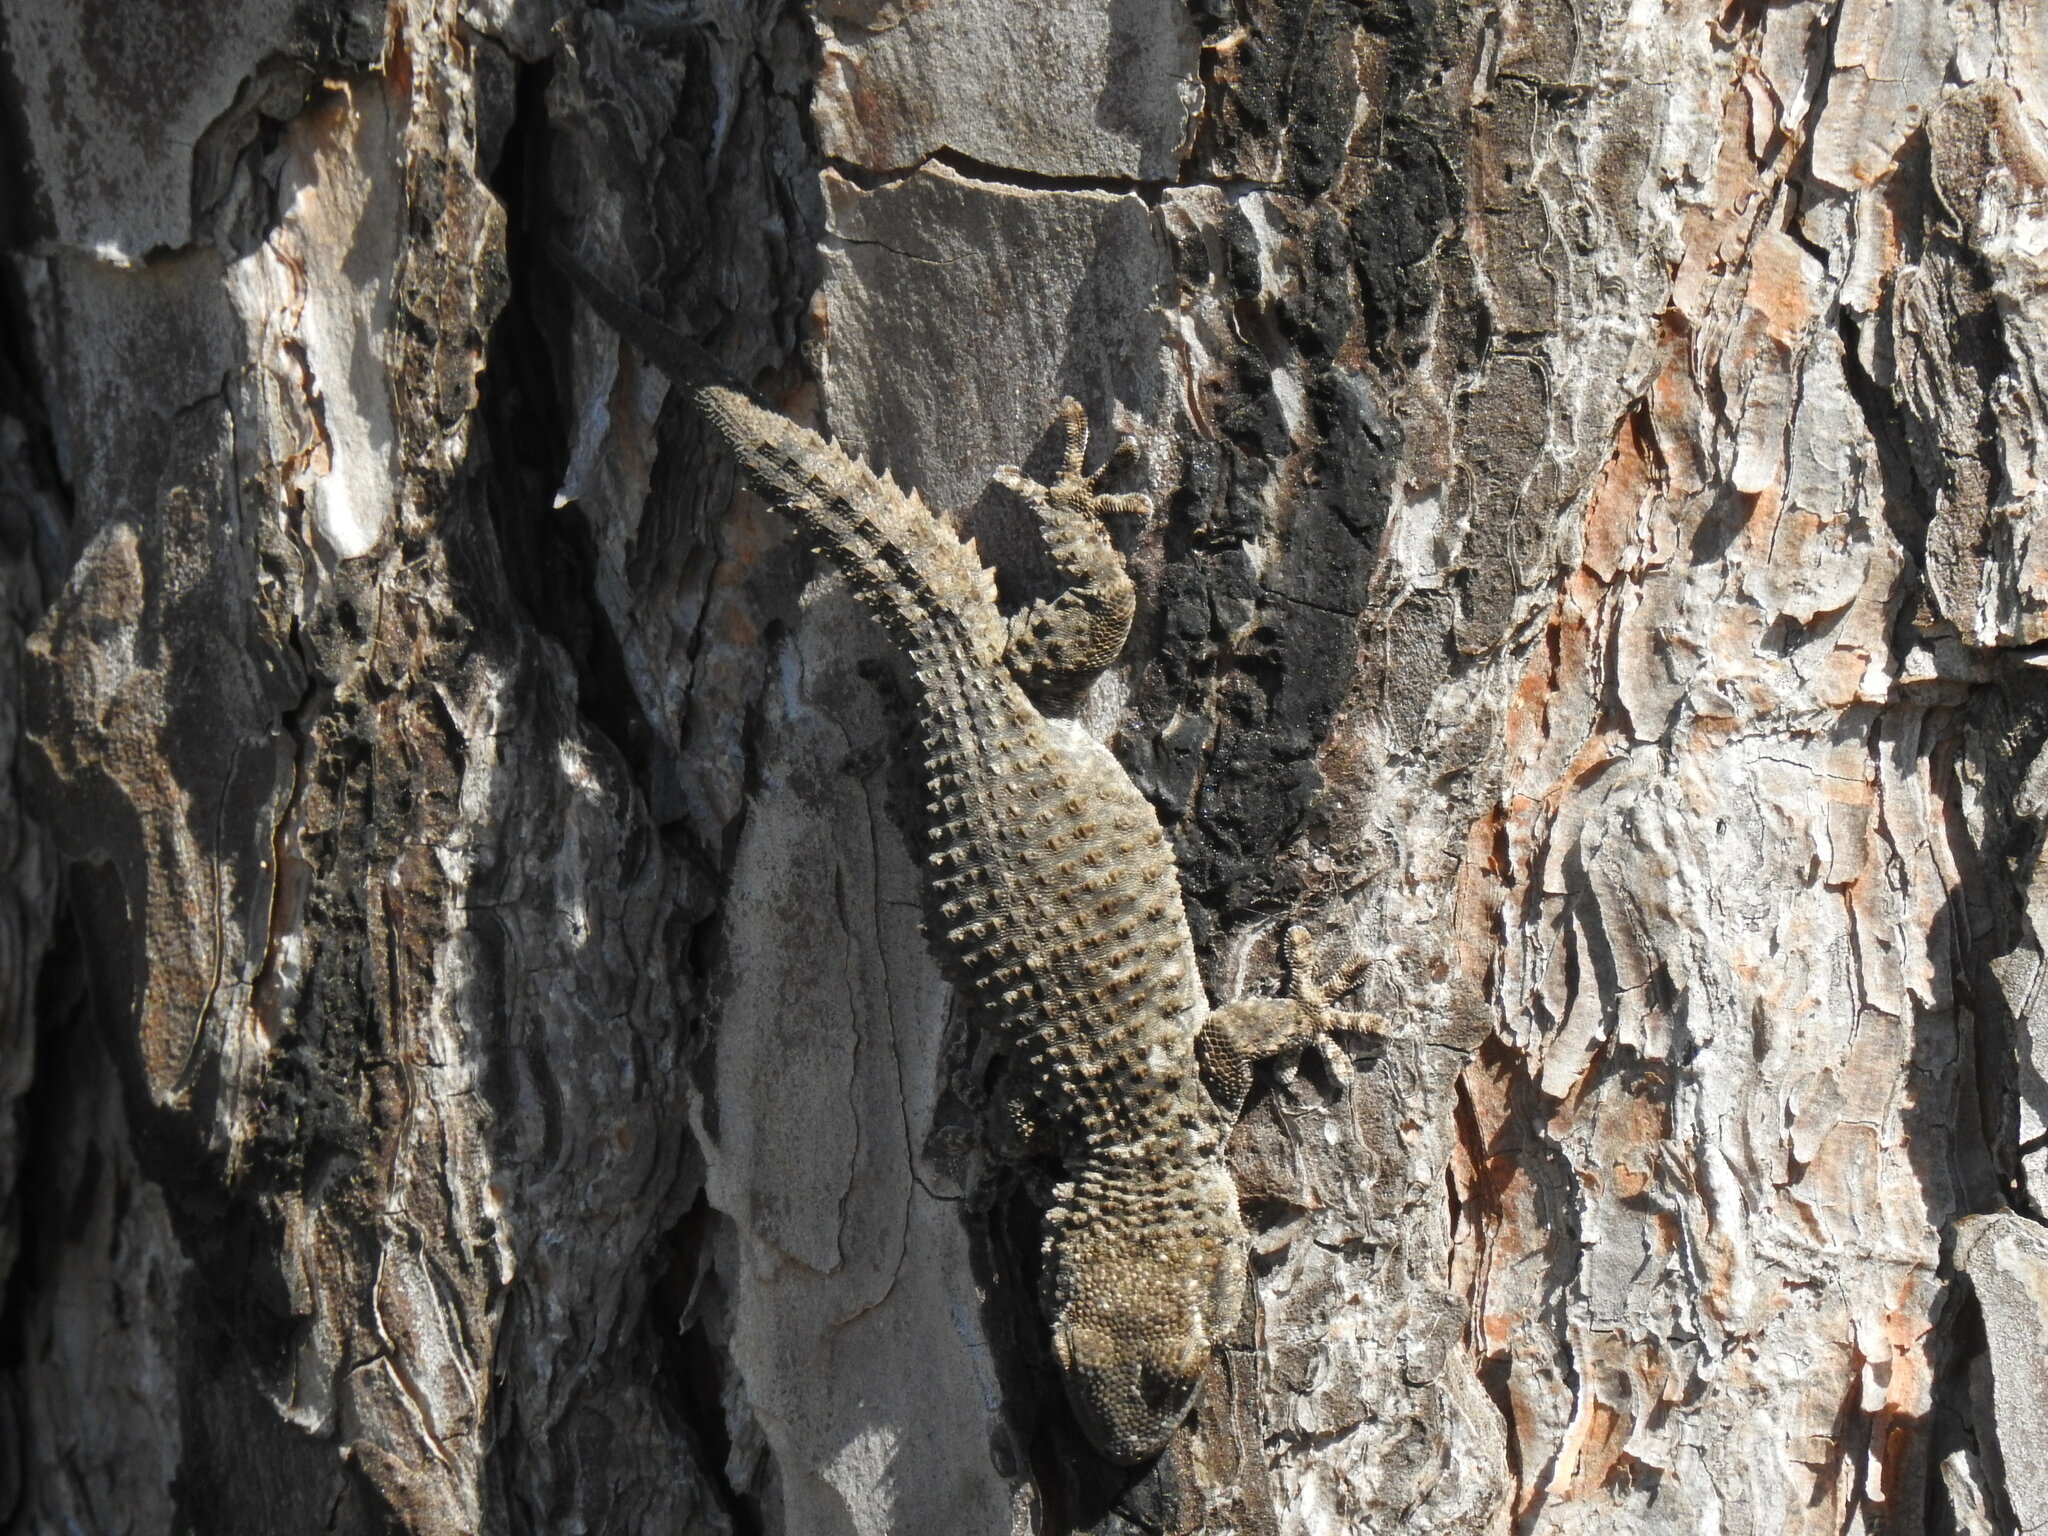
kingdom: Animalia
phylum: Chordata
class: Squamata
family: Phyllodactylidae
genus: Tarentola
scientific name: Tarentola mauritanica
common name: Moorish gecko
